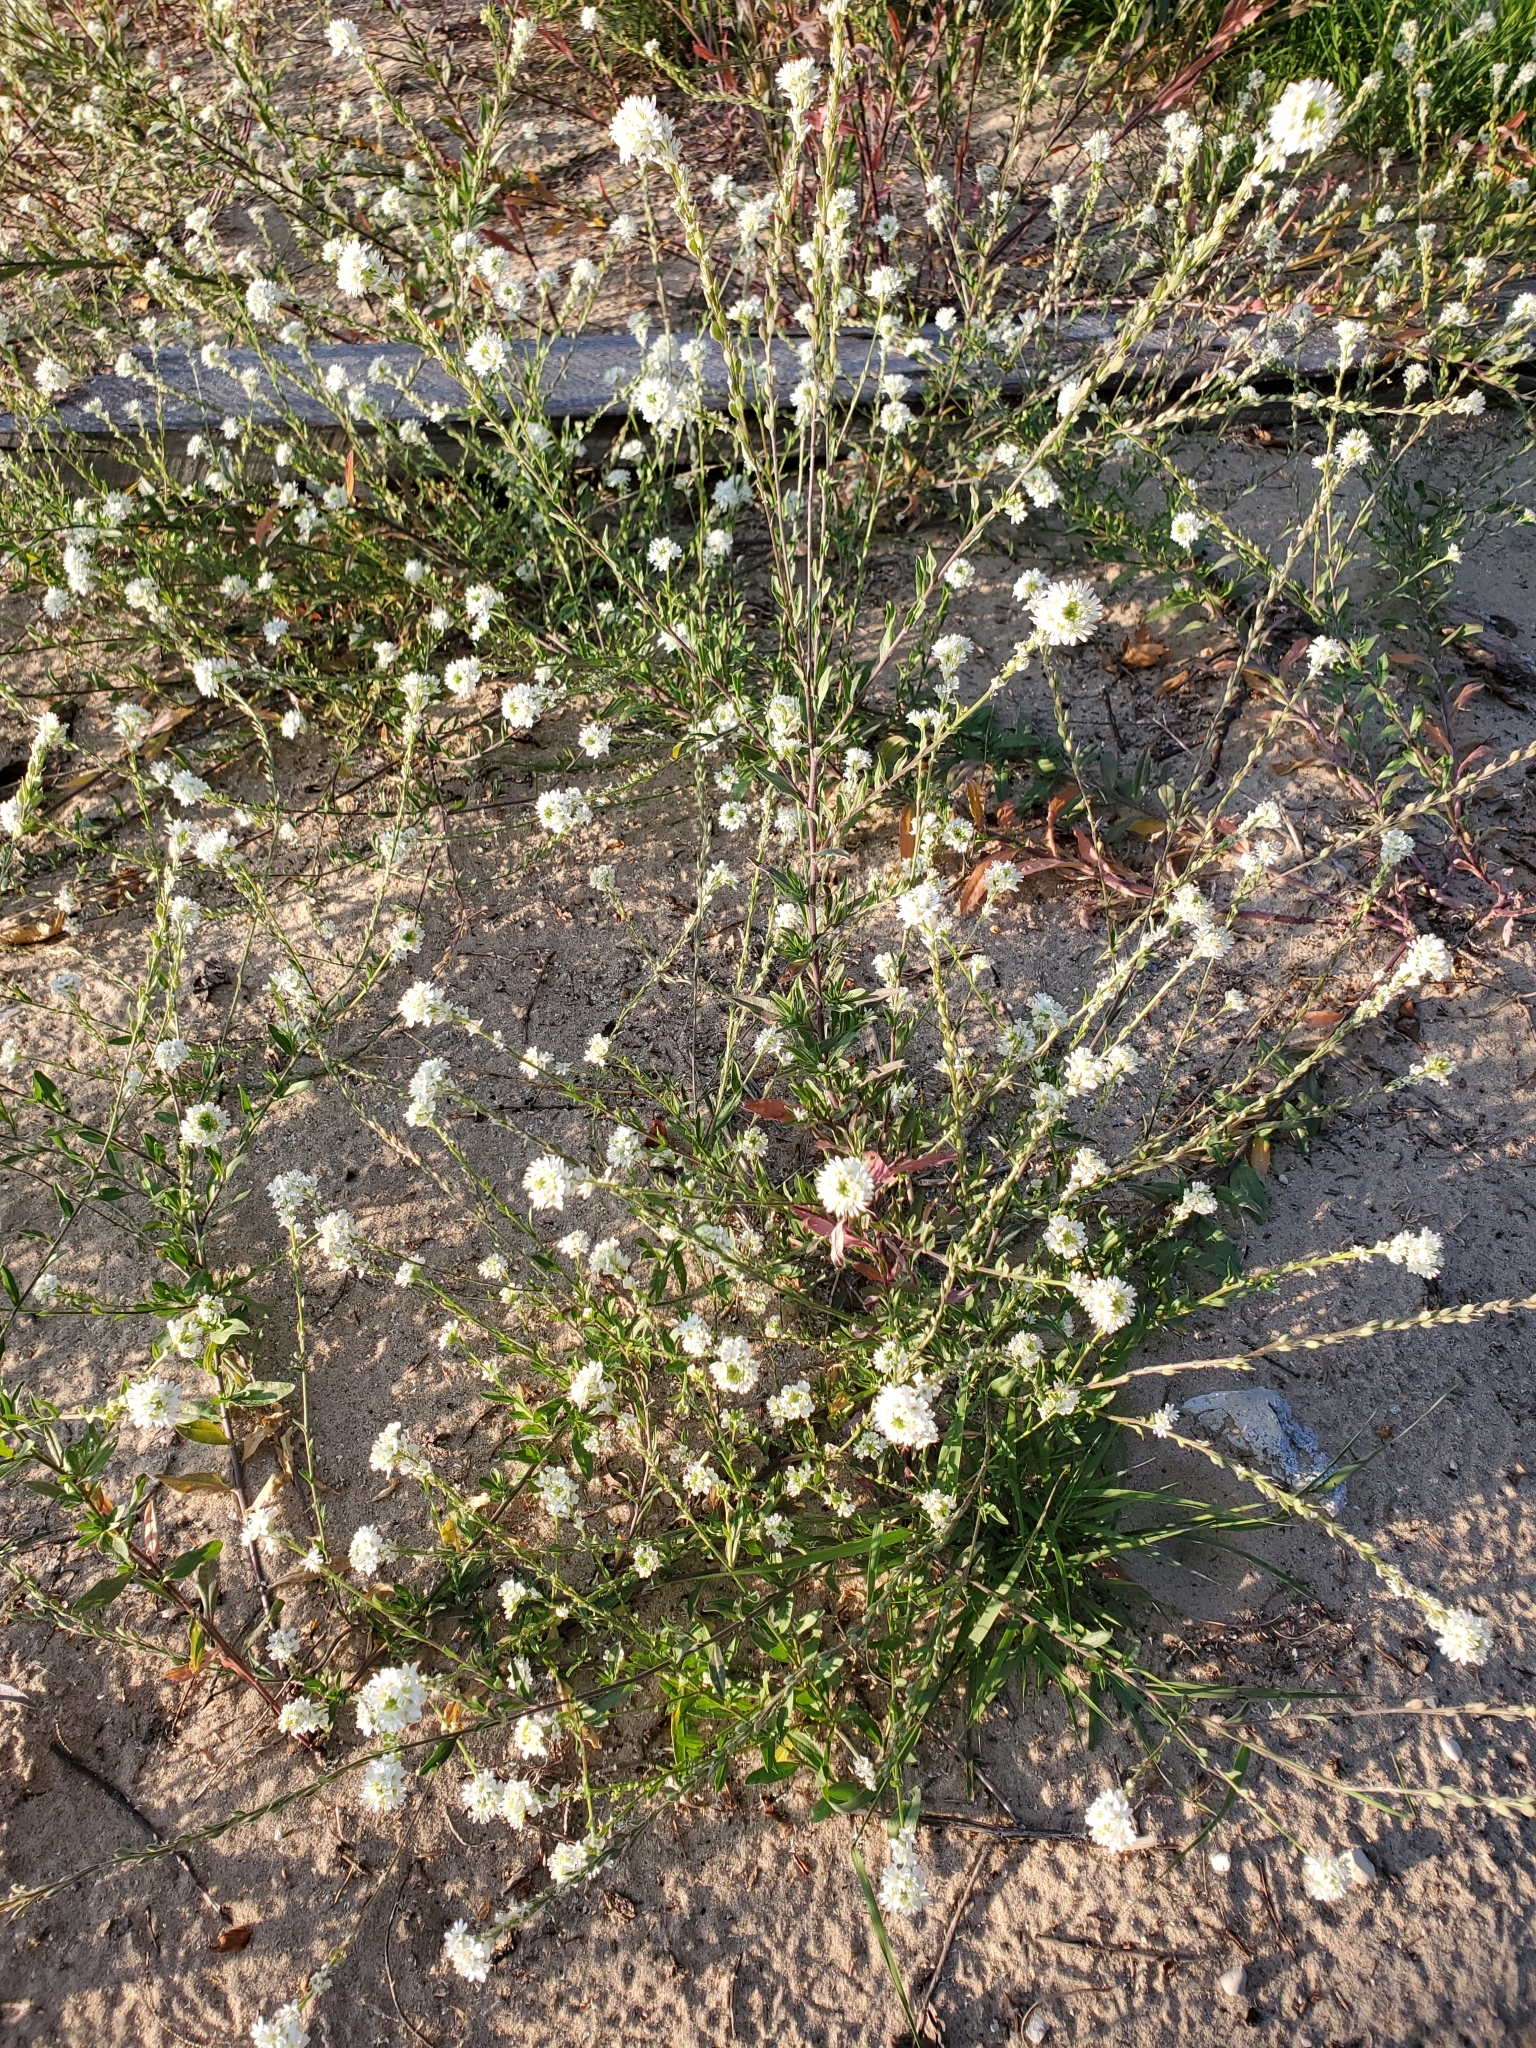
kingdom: Plantae
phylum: Tracheophyta
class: Magnoliopsida
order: Brassicales
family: Brassicaceae
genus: Berteroa
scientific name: Berteroa incana
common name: Hoary alison
